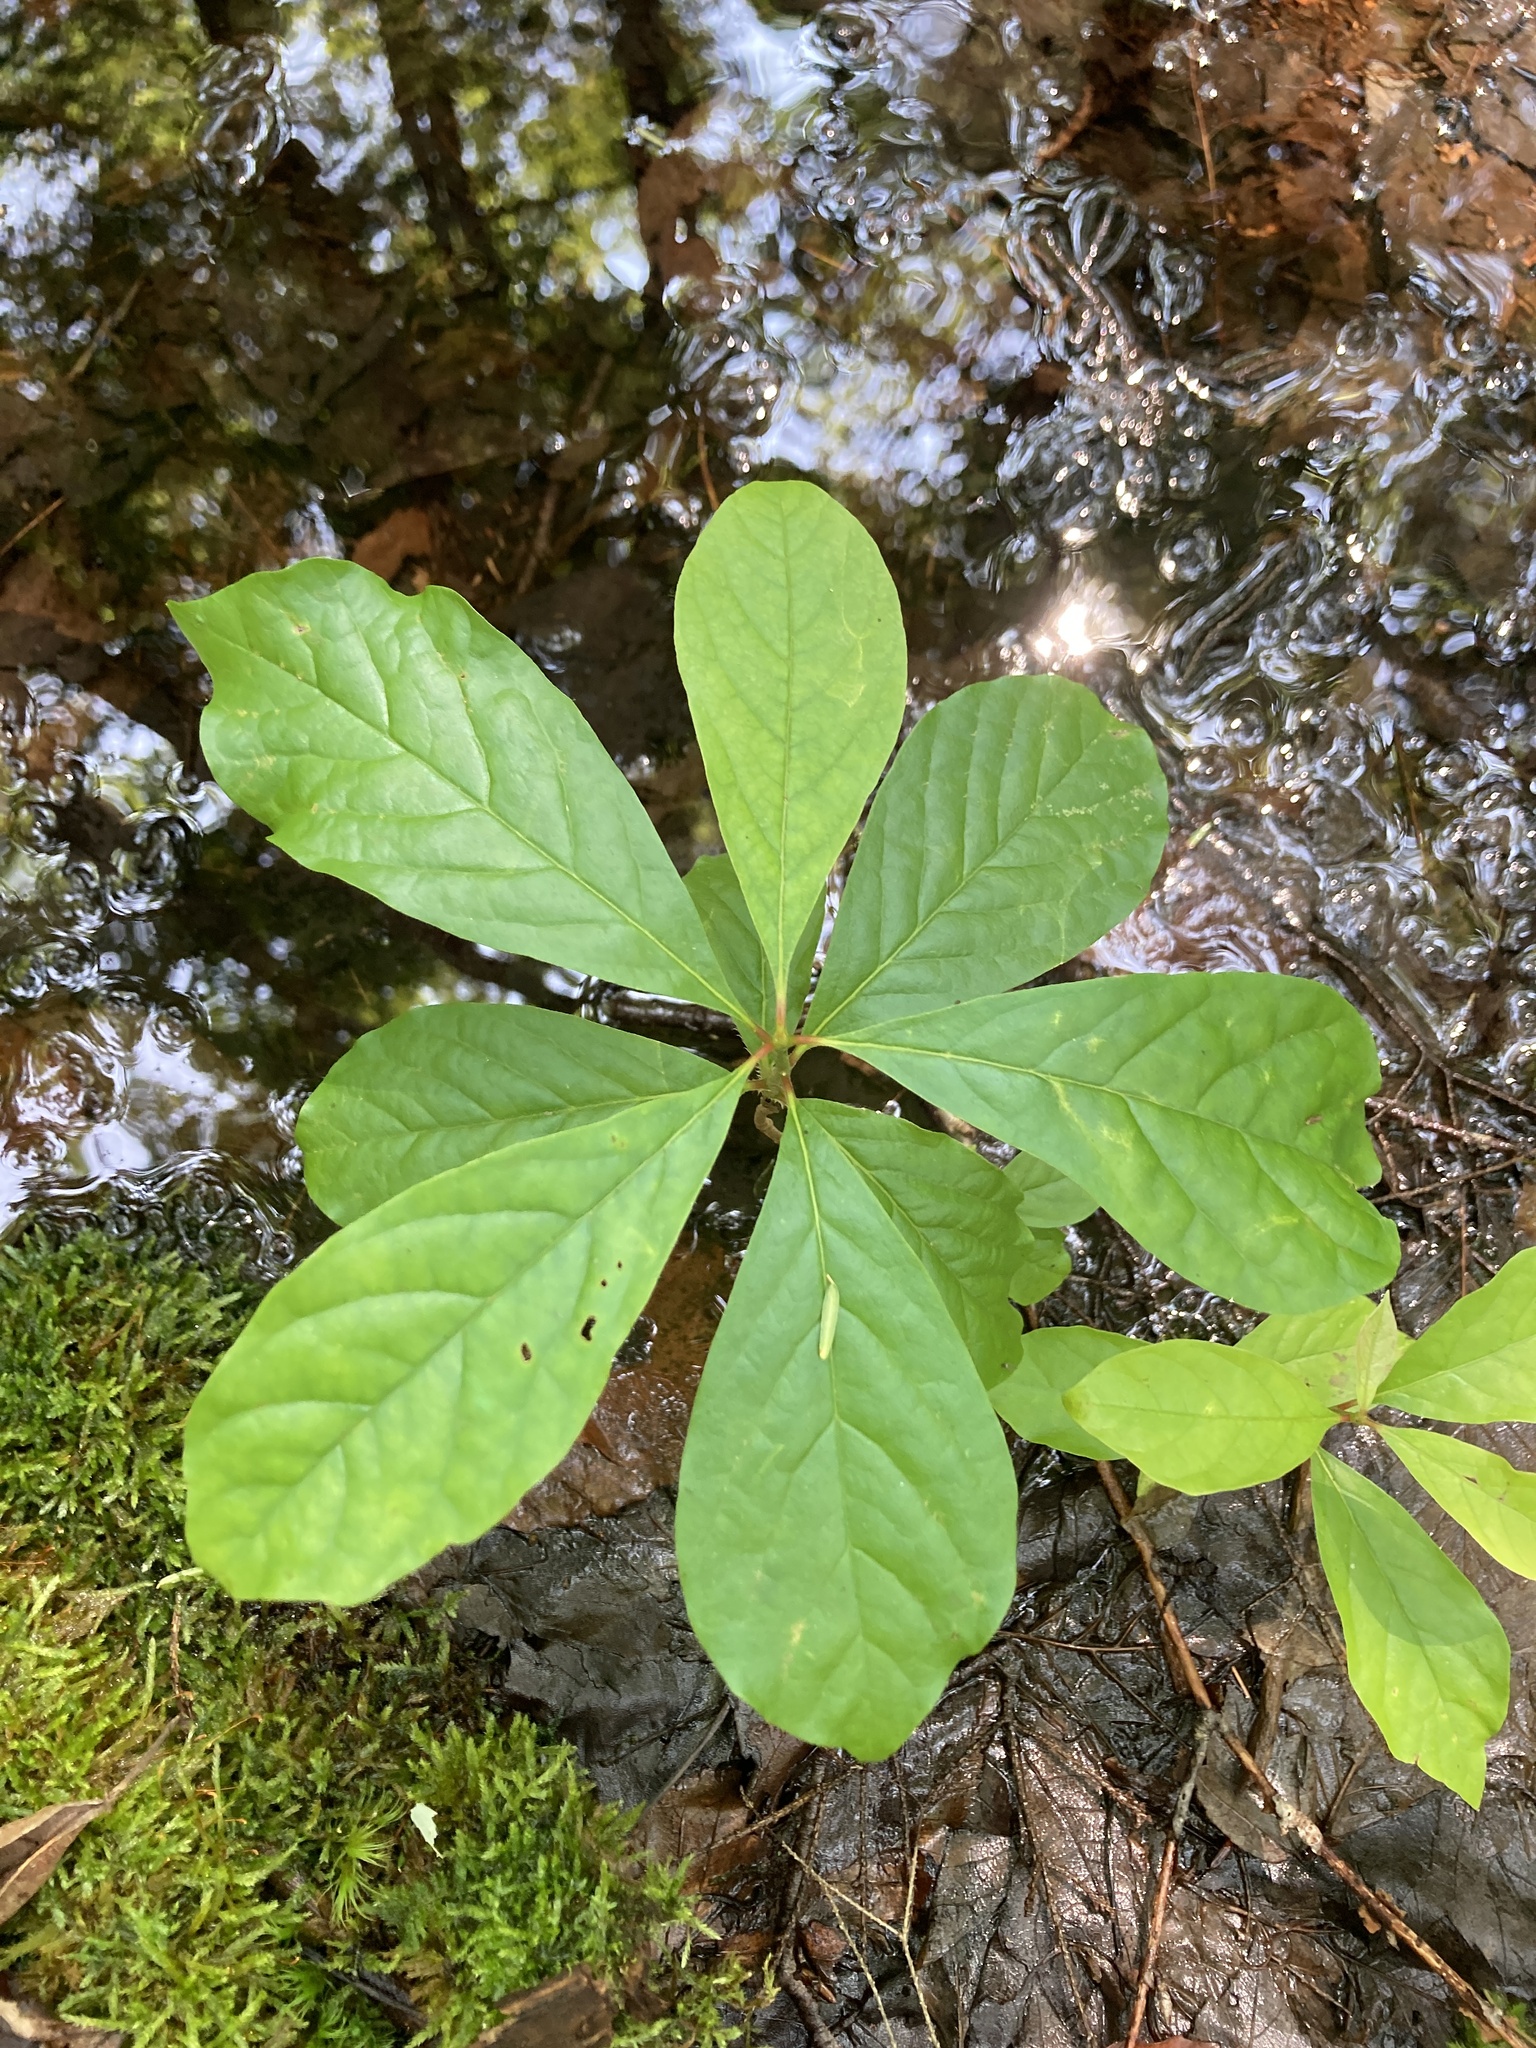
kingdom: Plantae
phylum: Tracheophyta
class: Magnoliopsida
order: Cornales
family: Nyssaceae
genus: Nyssa
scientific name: Nyssa sylvatica
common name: Black tupelo
